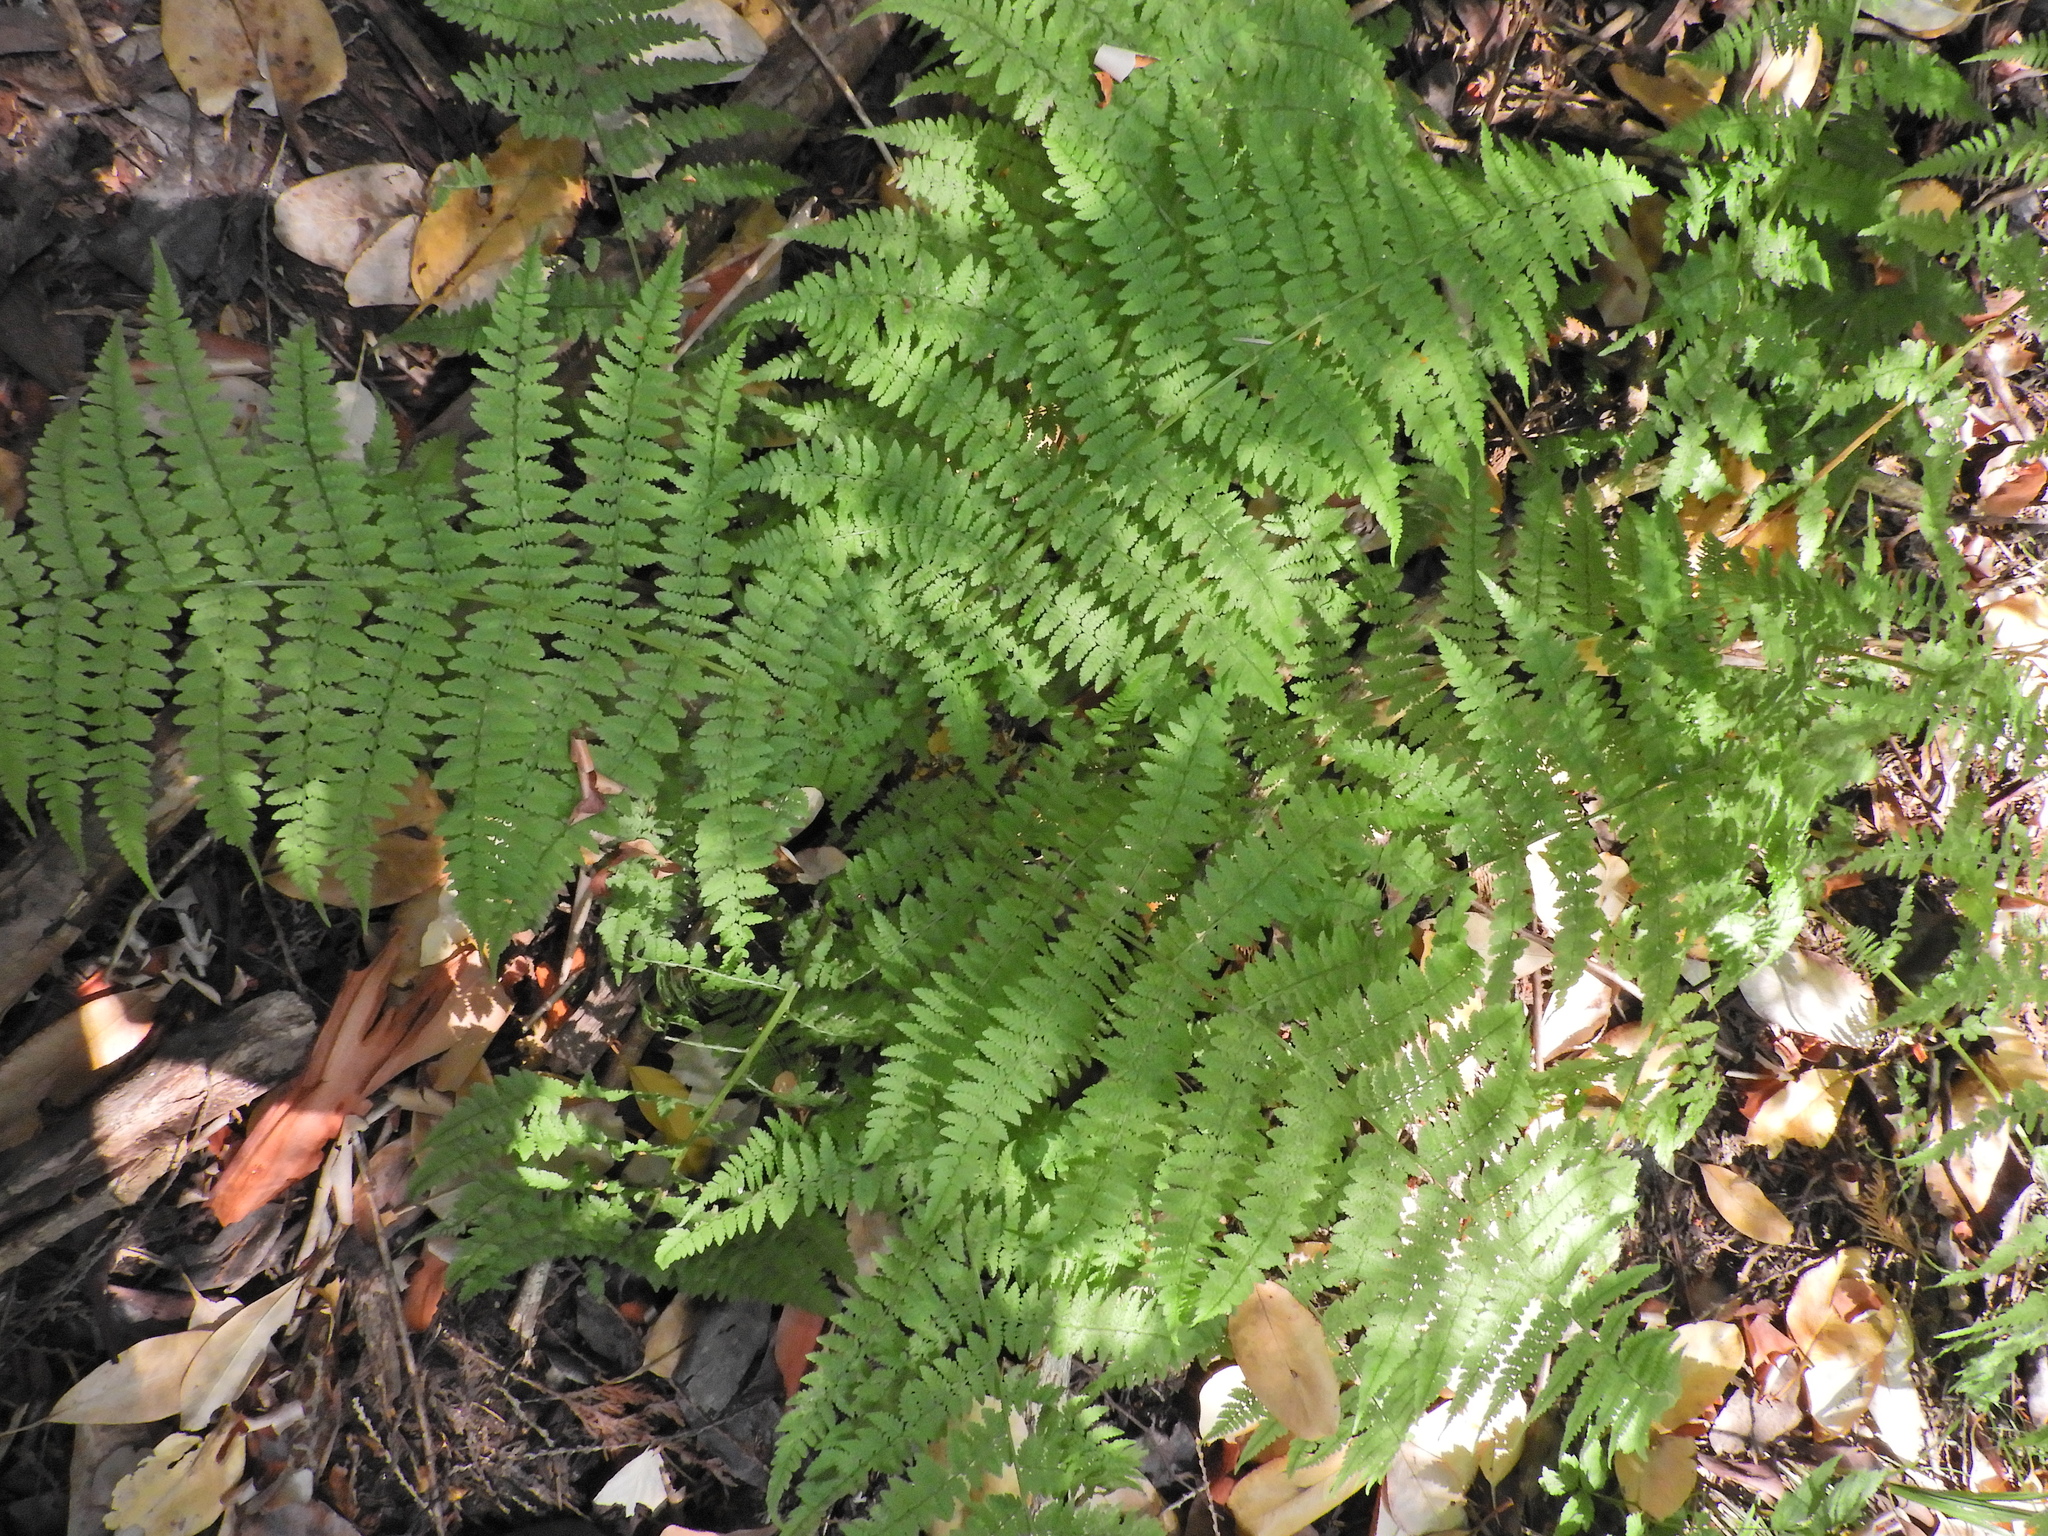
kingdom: Plantae
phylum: Tracheophyta
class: Polypodiopsida
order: Polypodiales
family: Athyriaceae
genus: Athyrium
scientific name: Athyrium filix-femina
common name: Lady fern
